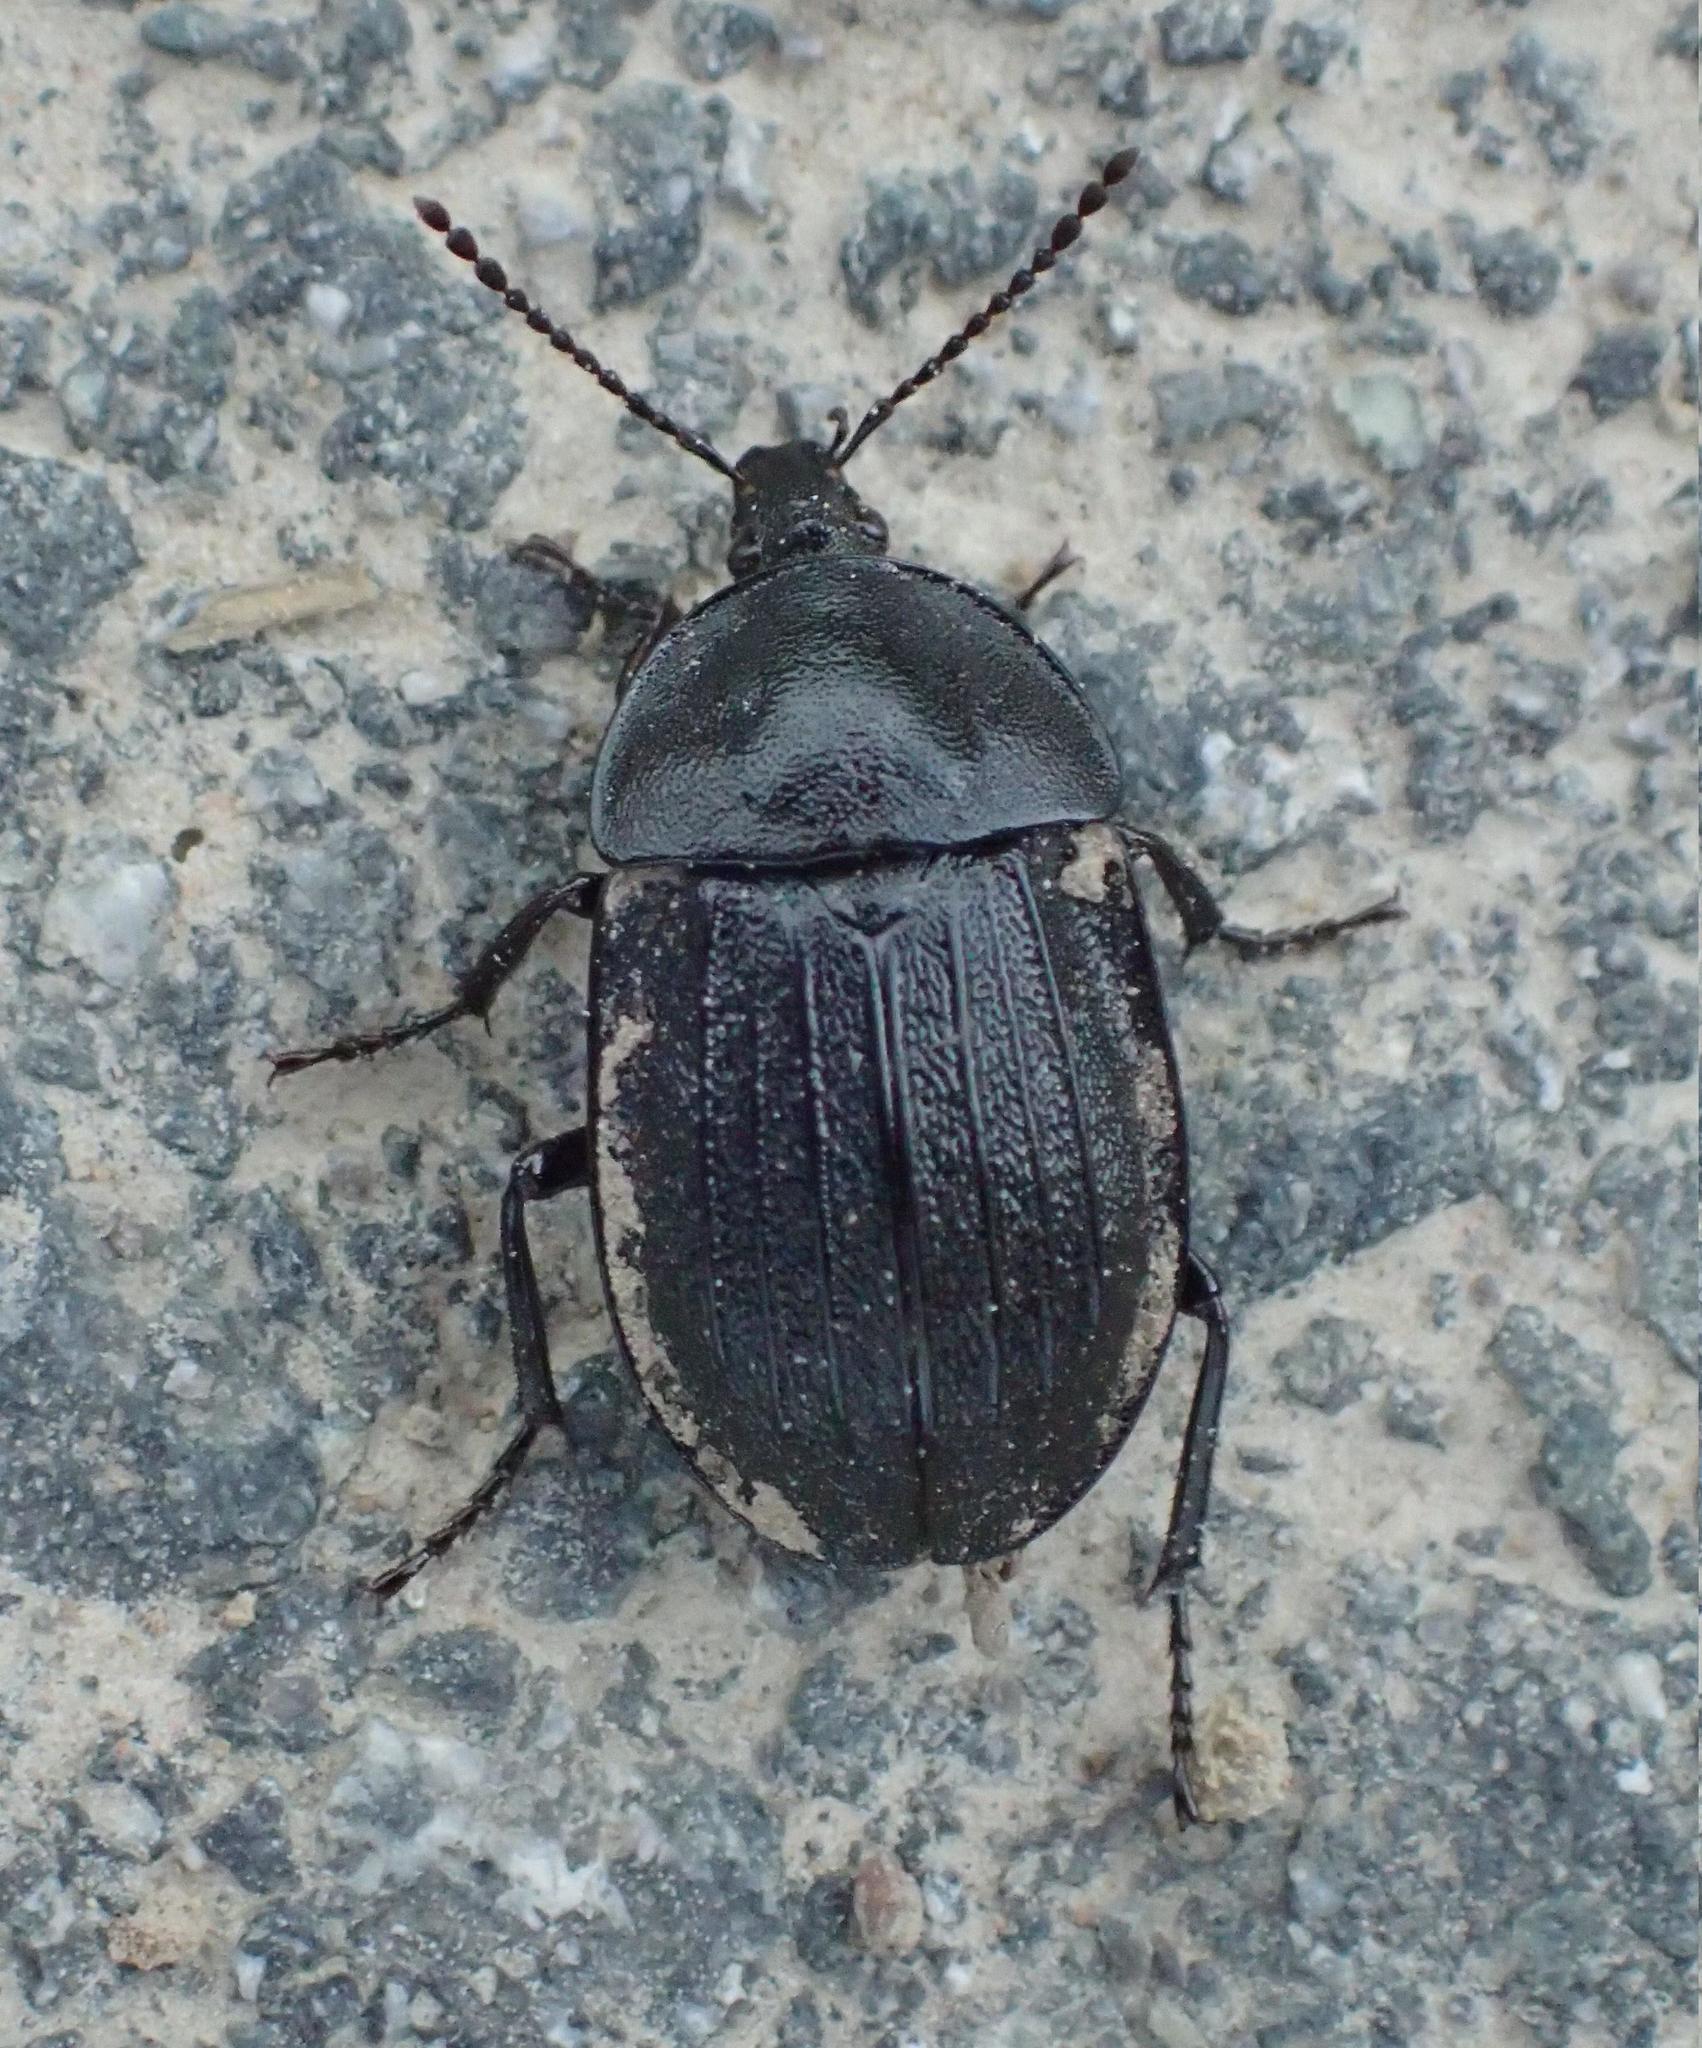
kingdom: Animalia
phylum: Arthropoda
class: Insecta
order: Coleoptera
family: Staphylinidae
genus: Silpha
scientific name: Silpha atrata
